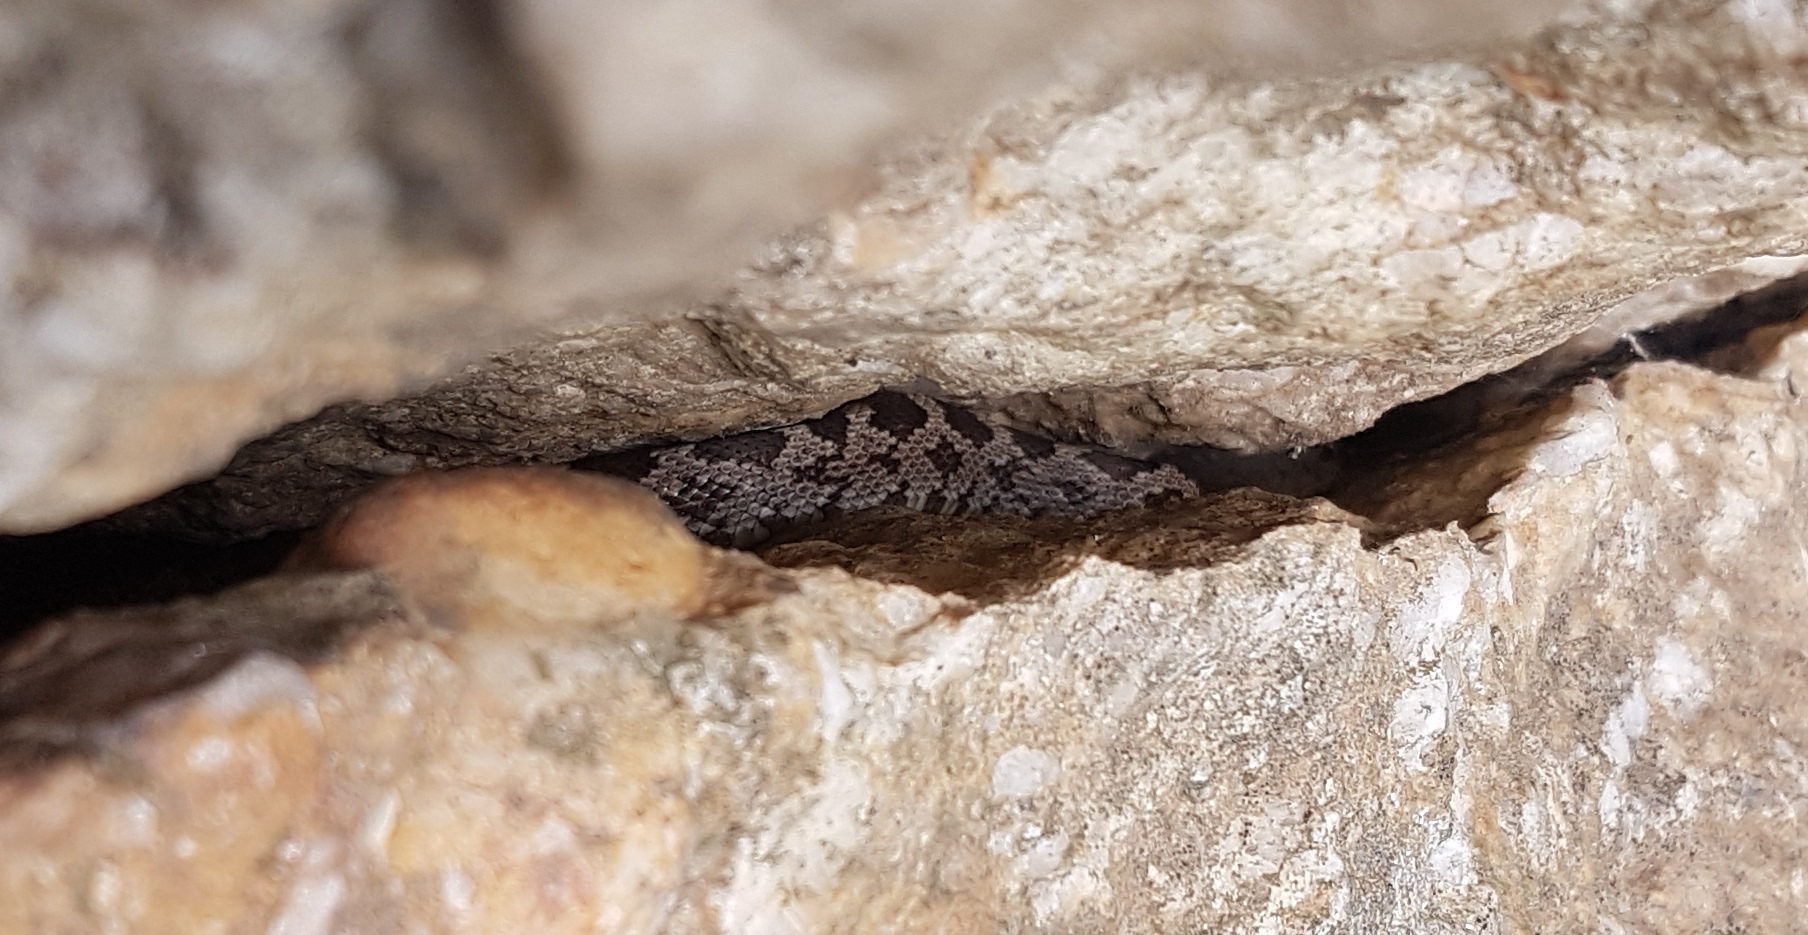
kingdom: Animalia
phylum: Chordata
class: Squamata
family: Colubridae
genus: Pantherophis
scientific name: Pantherophis alleghaniensis
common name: Eastern rat snake
